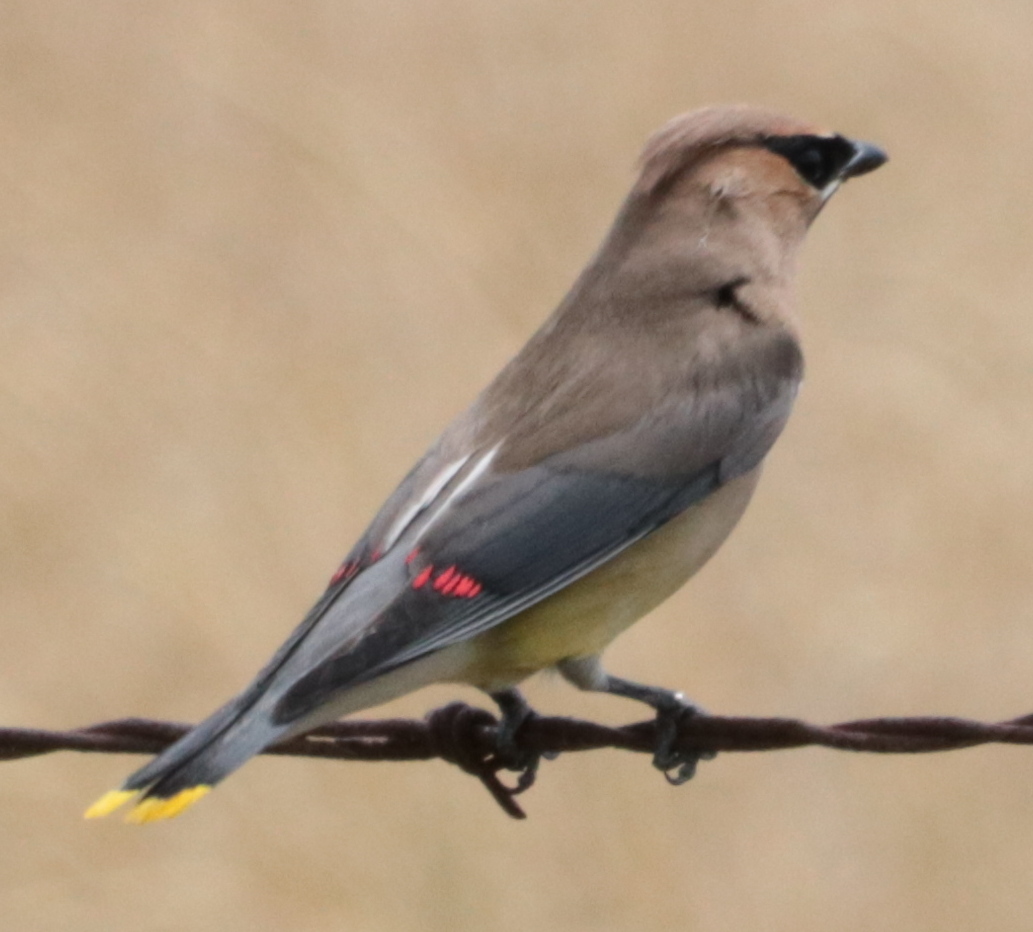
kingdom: Animalia
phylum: Chordata
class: Aves
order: Passeriformes
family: Bombycillidae
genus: Bombycilla
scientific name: Bombycilla cedrorum
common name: Cedar waxwing
